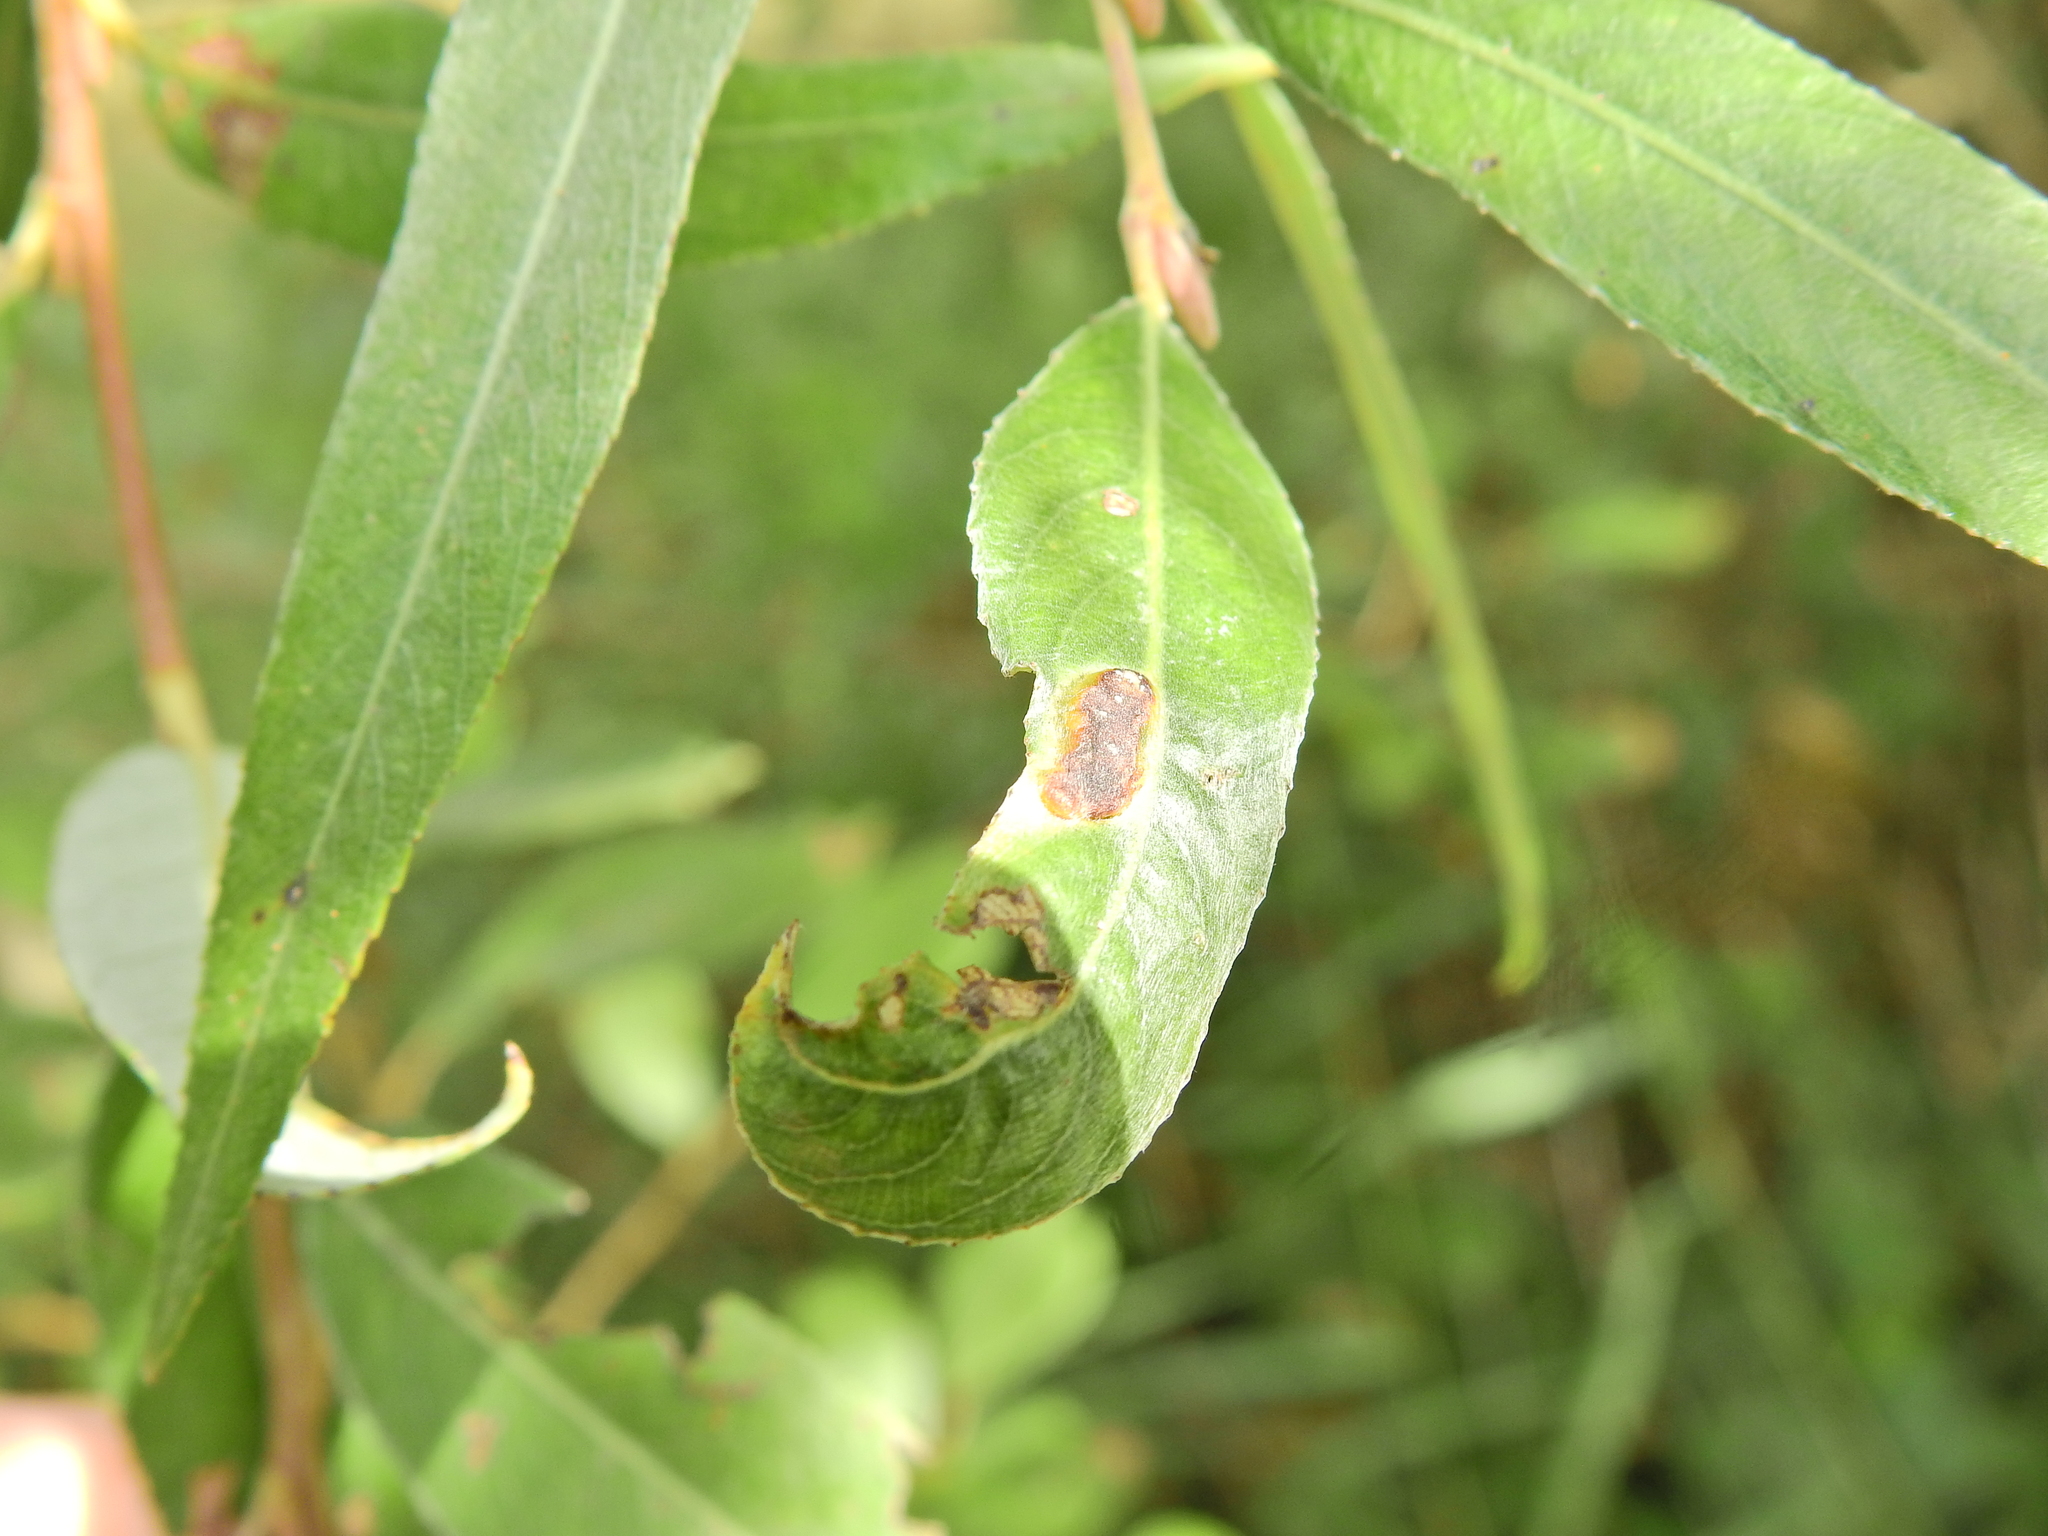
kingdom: Animalia
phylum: Arthropoda
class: Insecta
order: Hymenoptera
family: Tenthredinidae
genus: Pontania
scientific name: Pontania proxima
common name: Common sawfly
